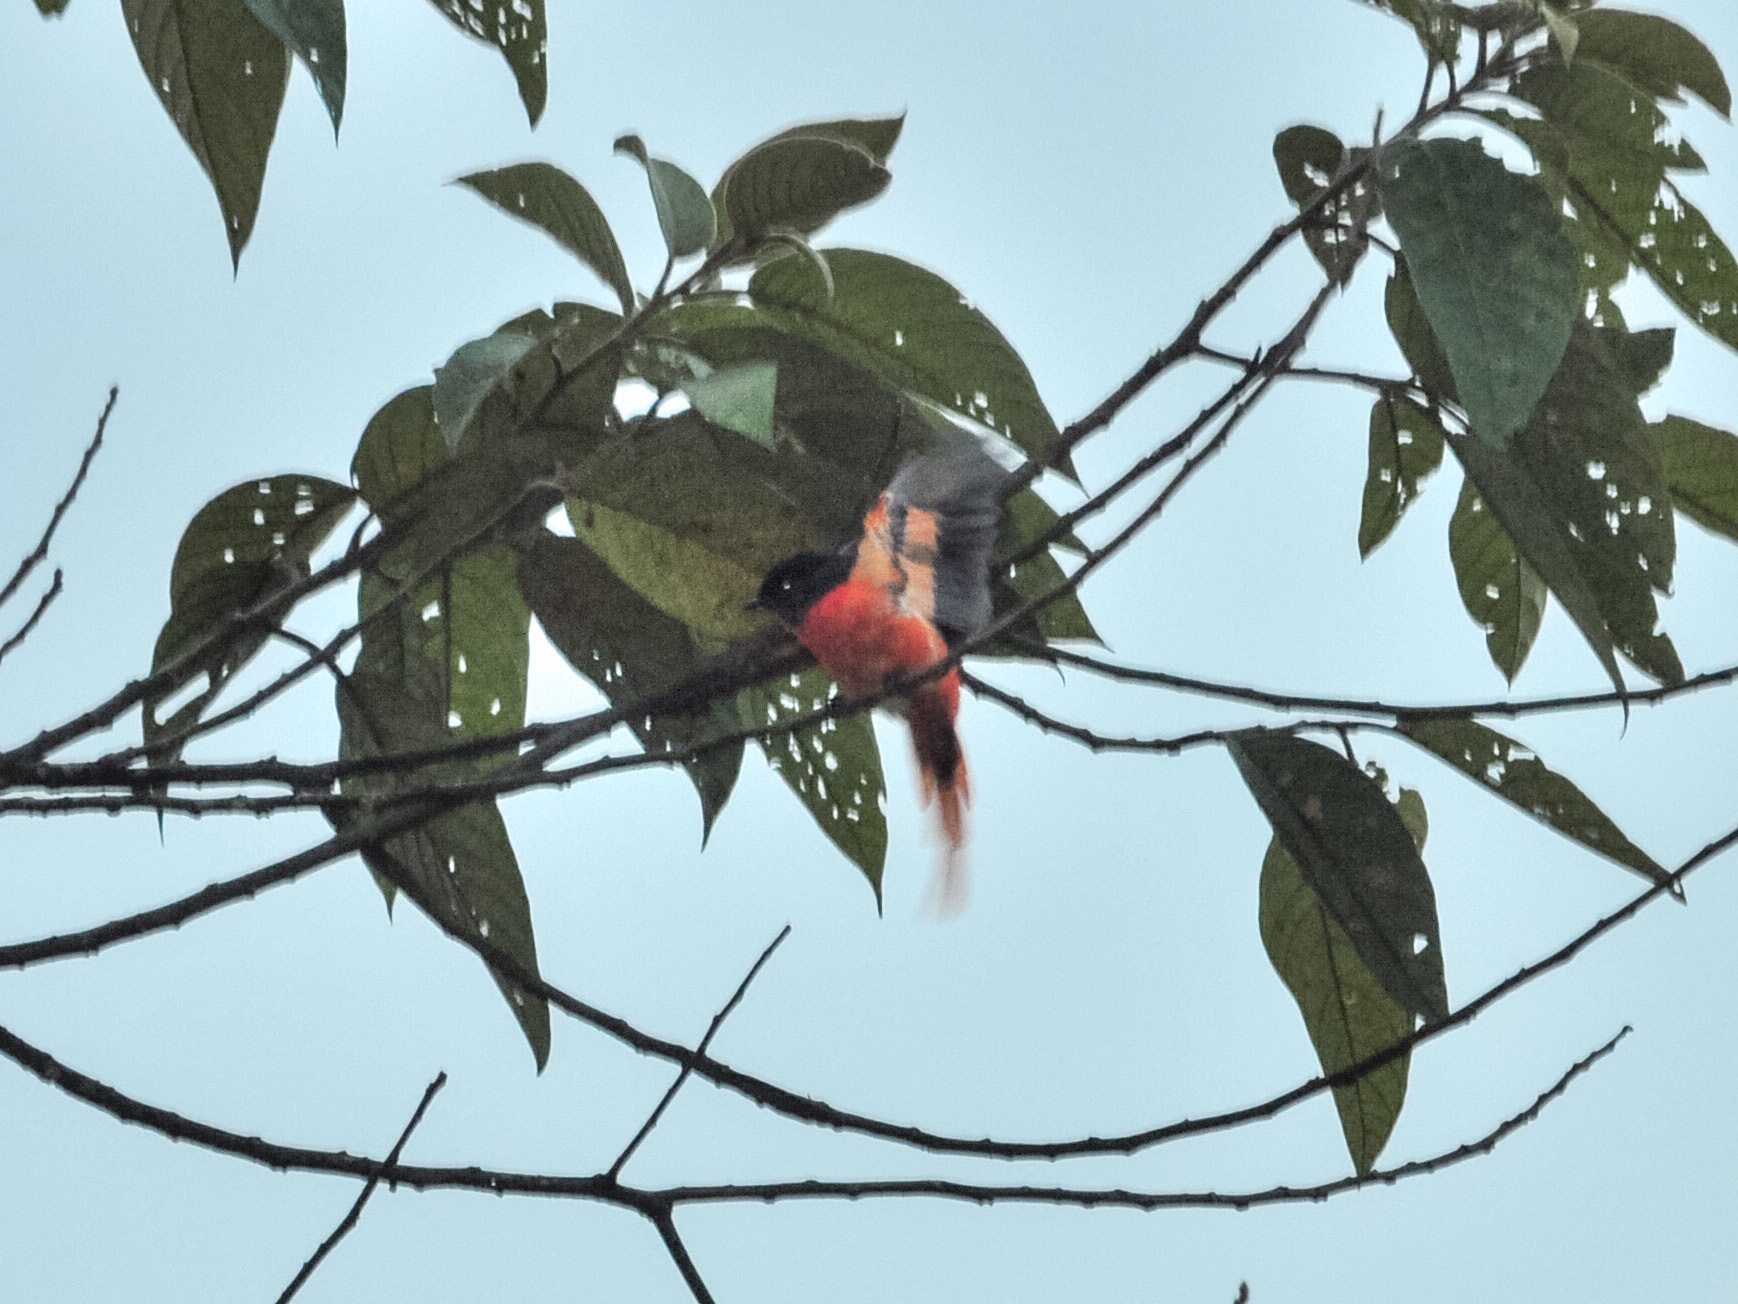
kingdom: Animalia
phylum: Chordata
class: Aves
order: Passeriformes
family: Campephagidae
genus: Pericrocotus
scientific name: Pericrocotus solaris
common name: Grey-chinned minivet
